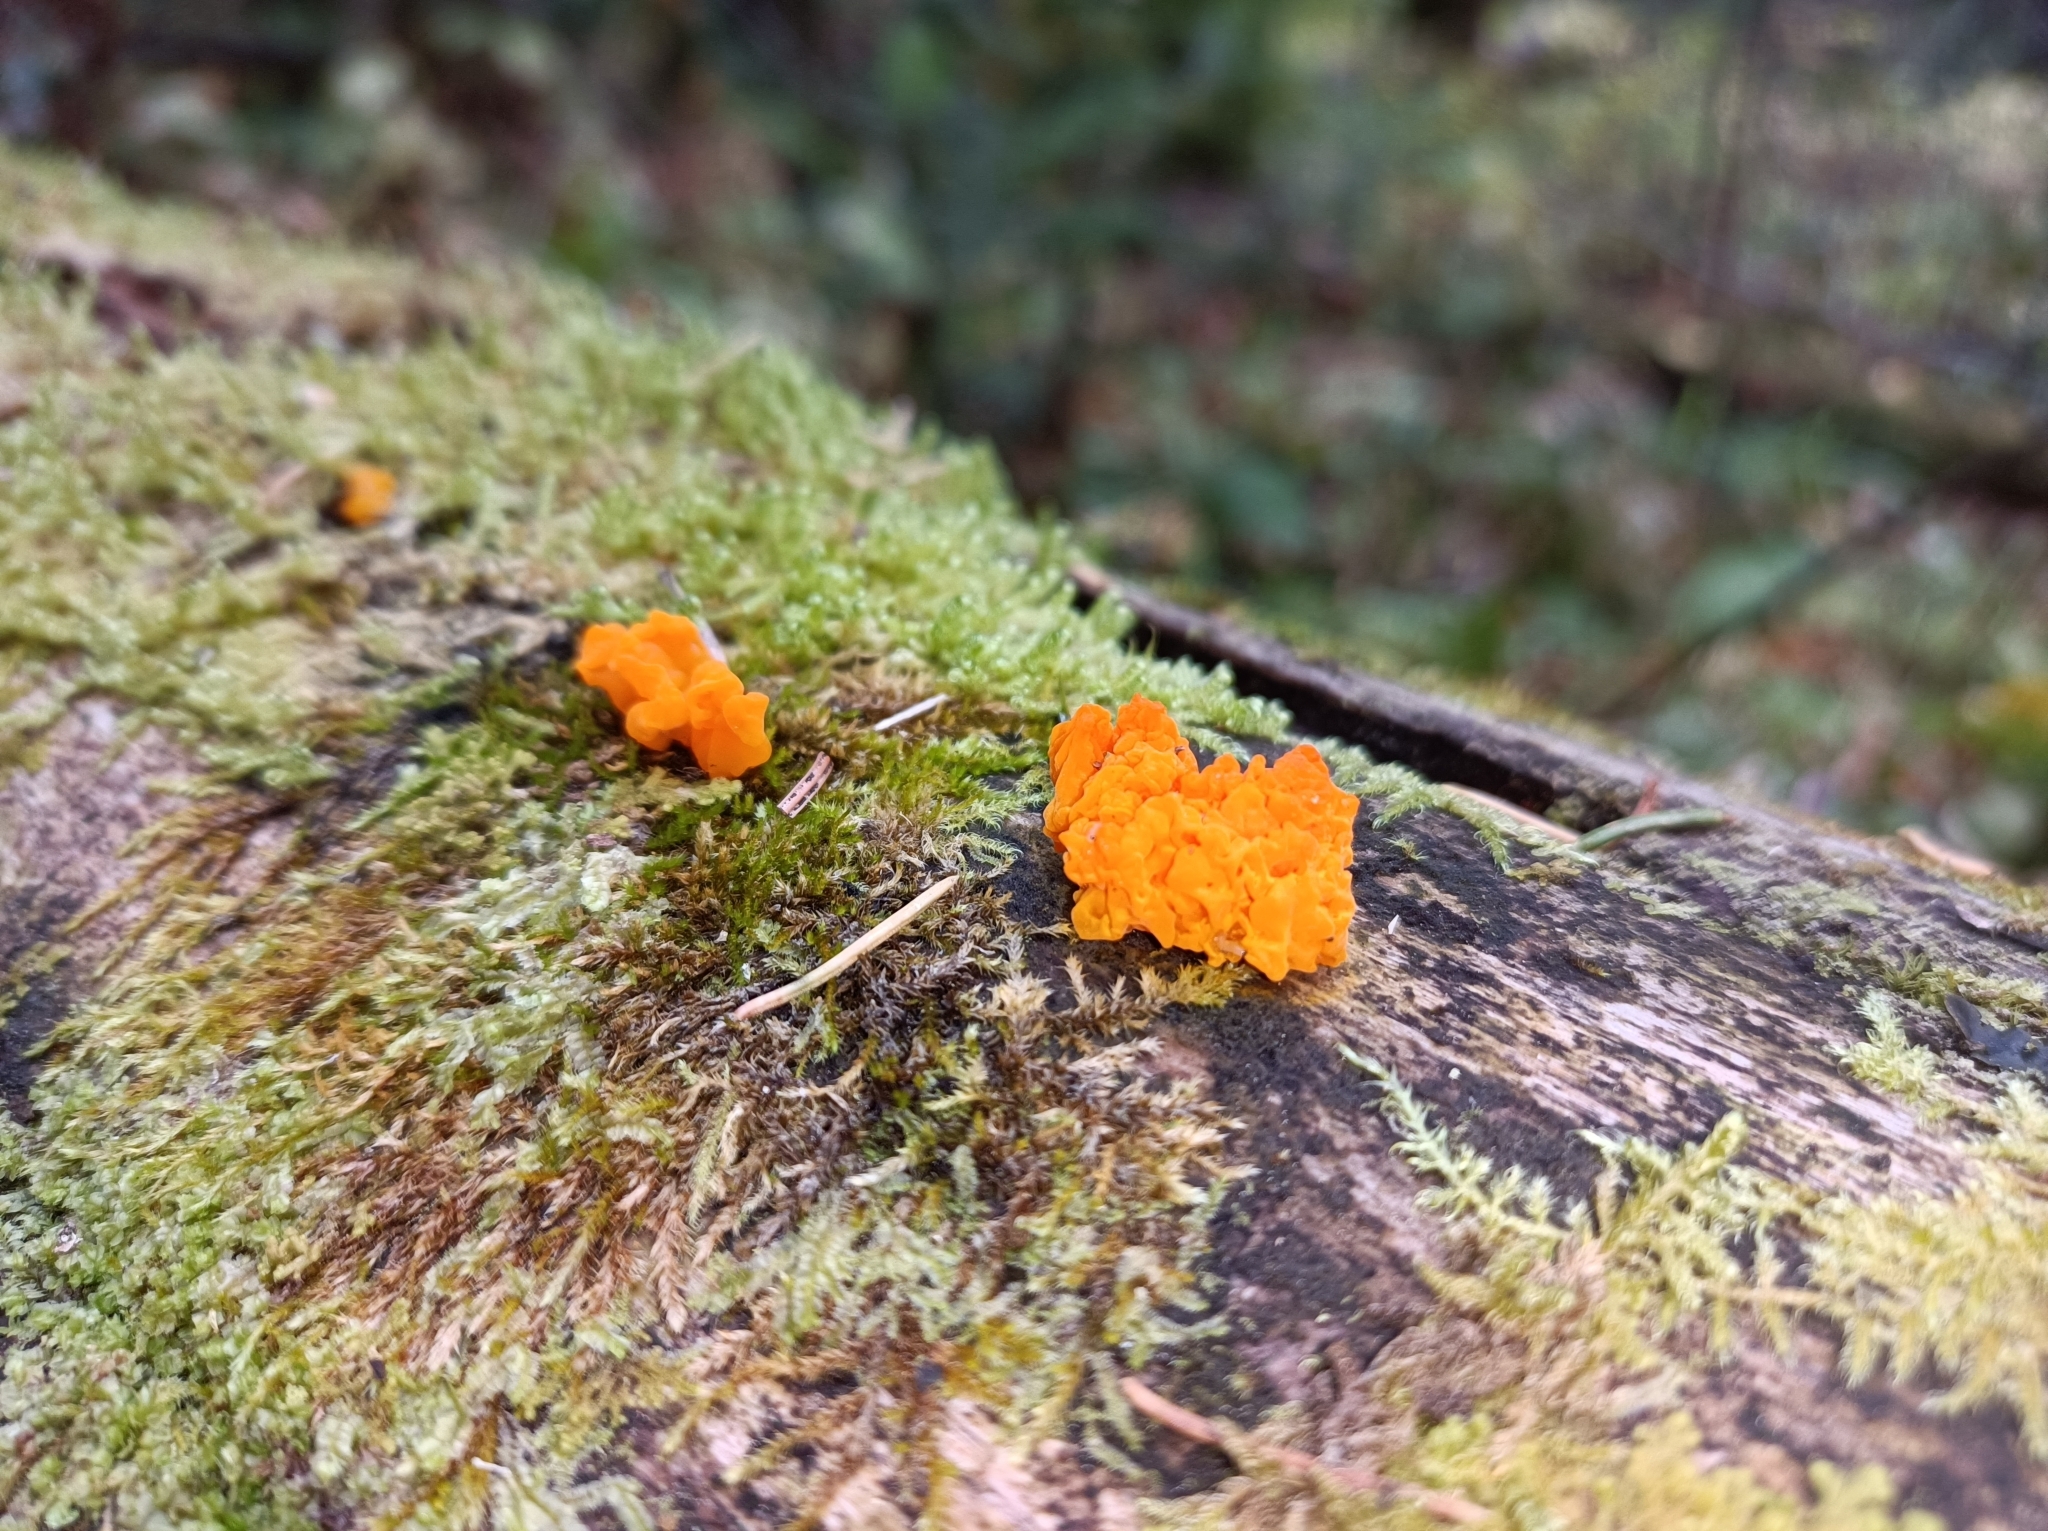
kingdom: Fungi
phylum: Basidiomycota
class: Tremellomycetes
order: Tremellales
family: Tremellaceae
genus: Tremella
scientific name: Tremella mesenterica
